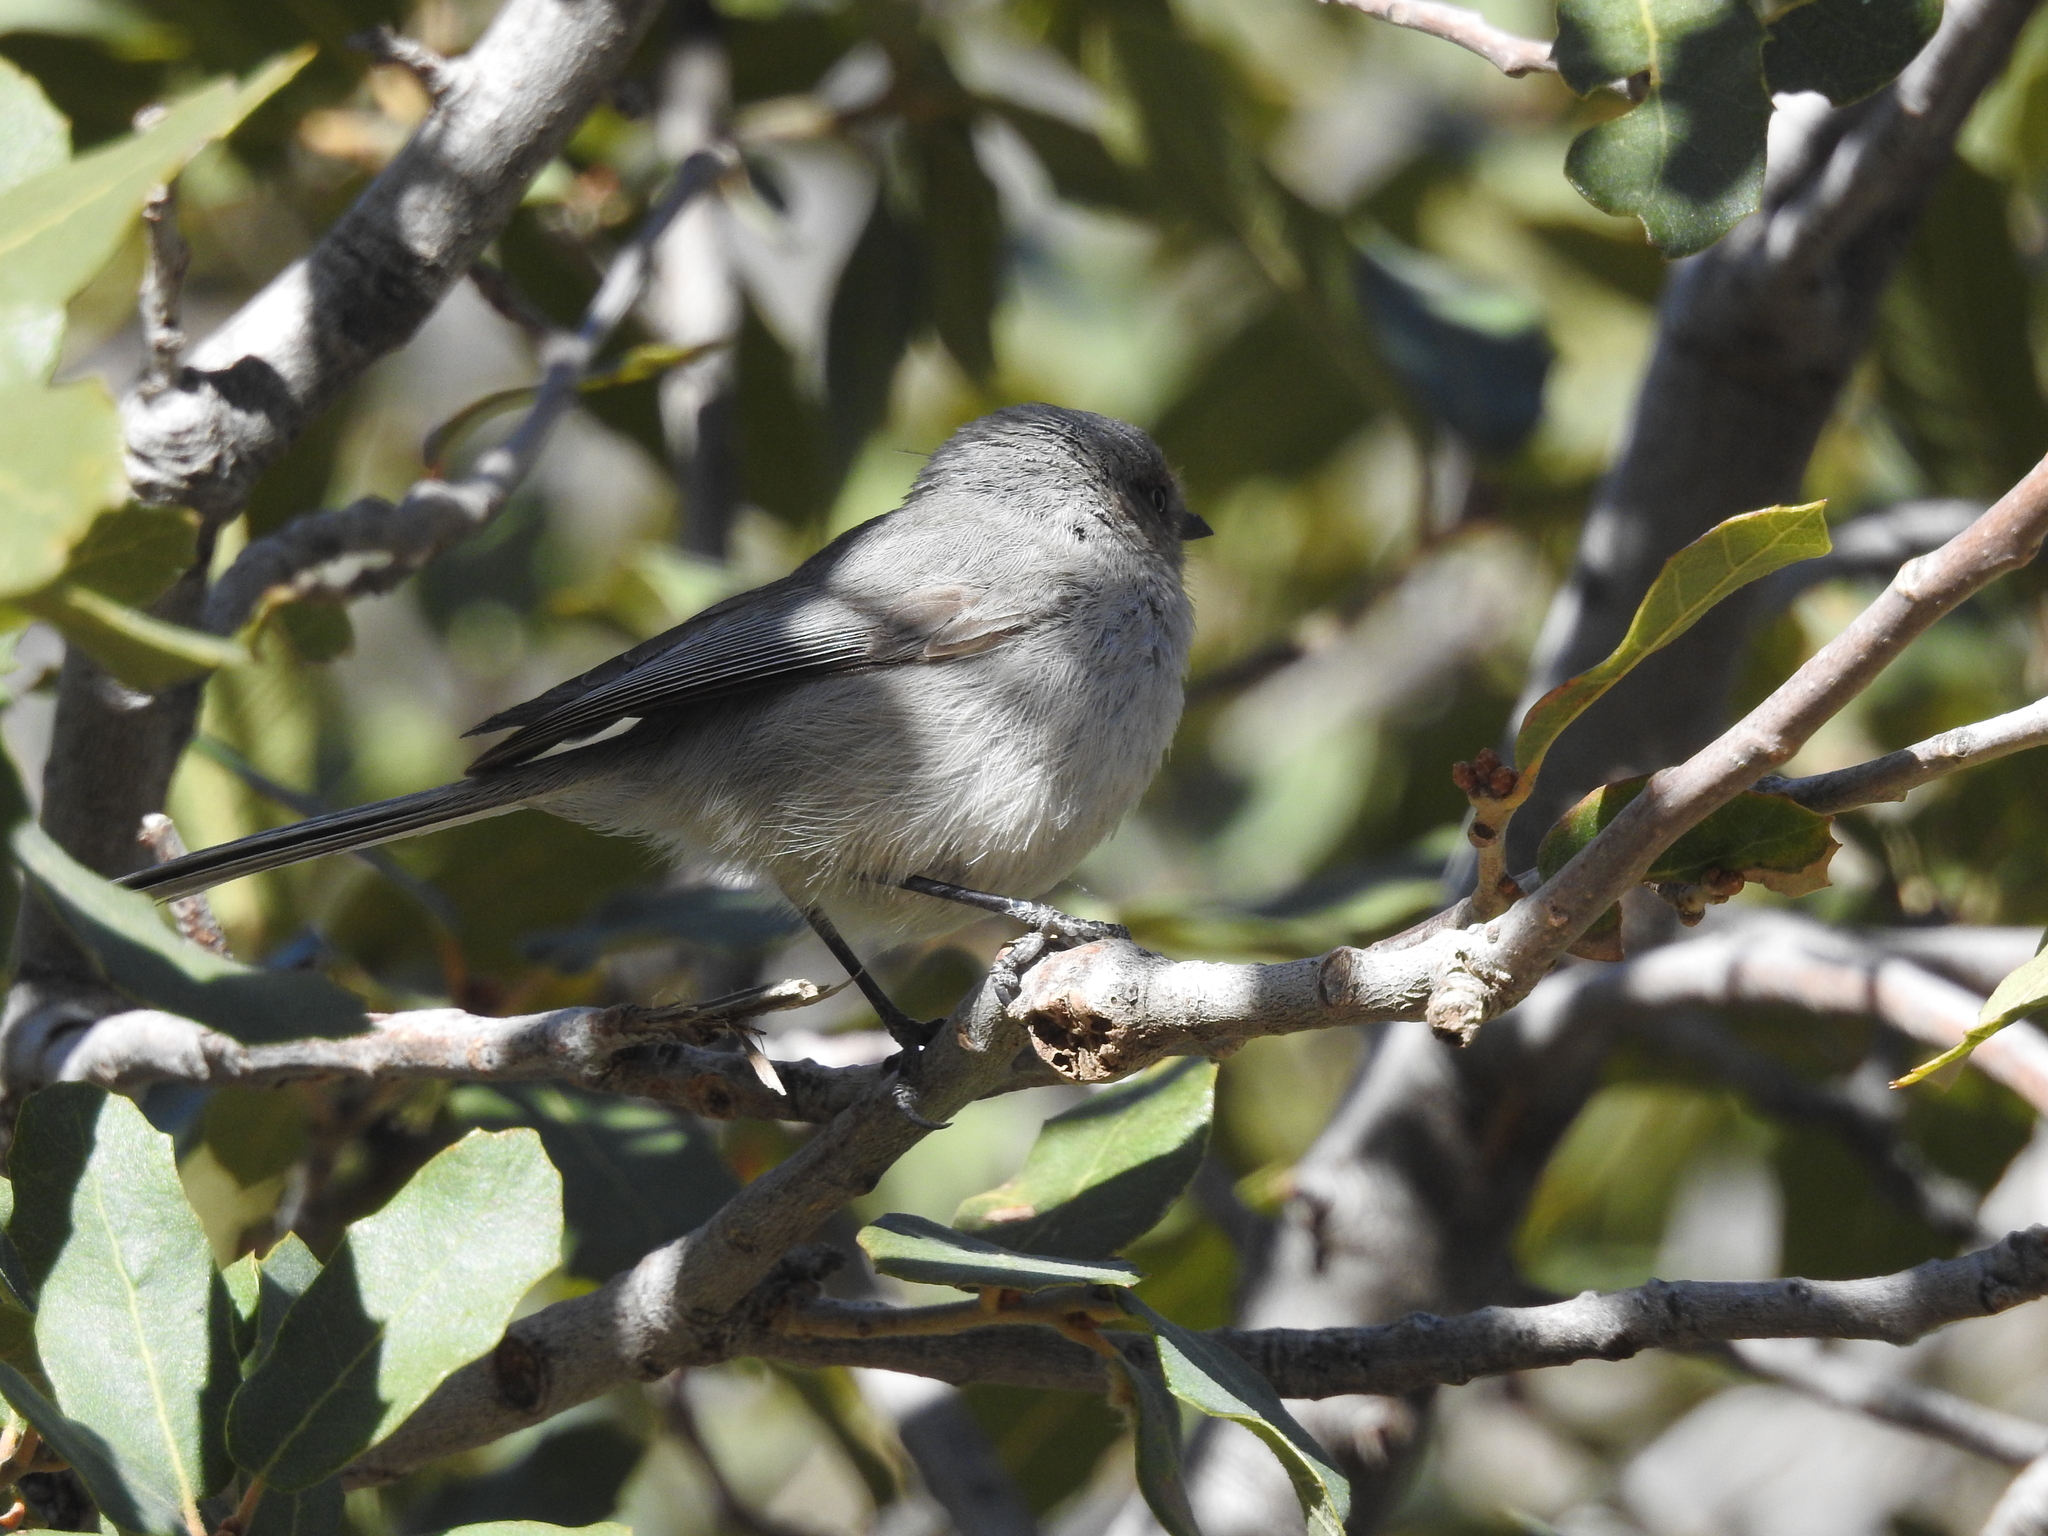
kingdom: Animalia
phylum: Chordata
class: Aves
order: Passeriformes
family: Aegithalidae
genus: Psaltriparus
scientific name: Psaltriparus minimus
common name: American bushtit
